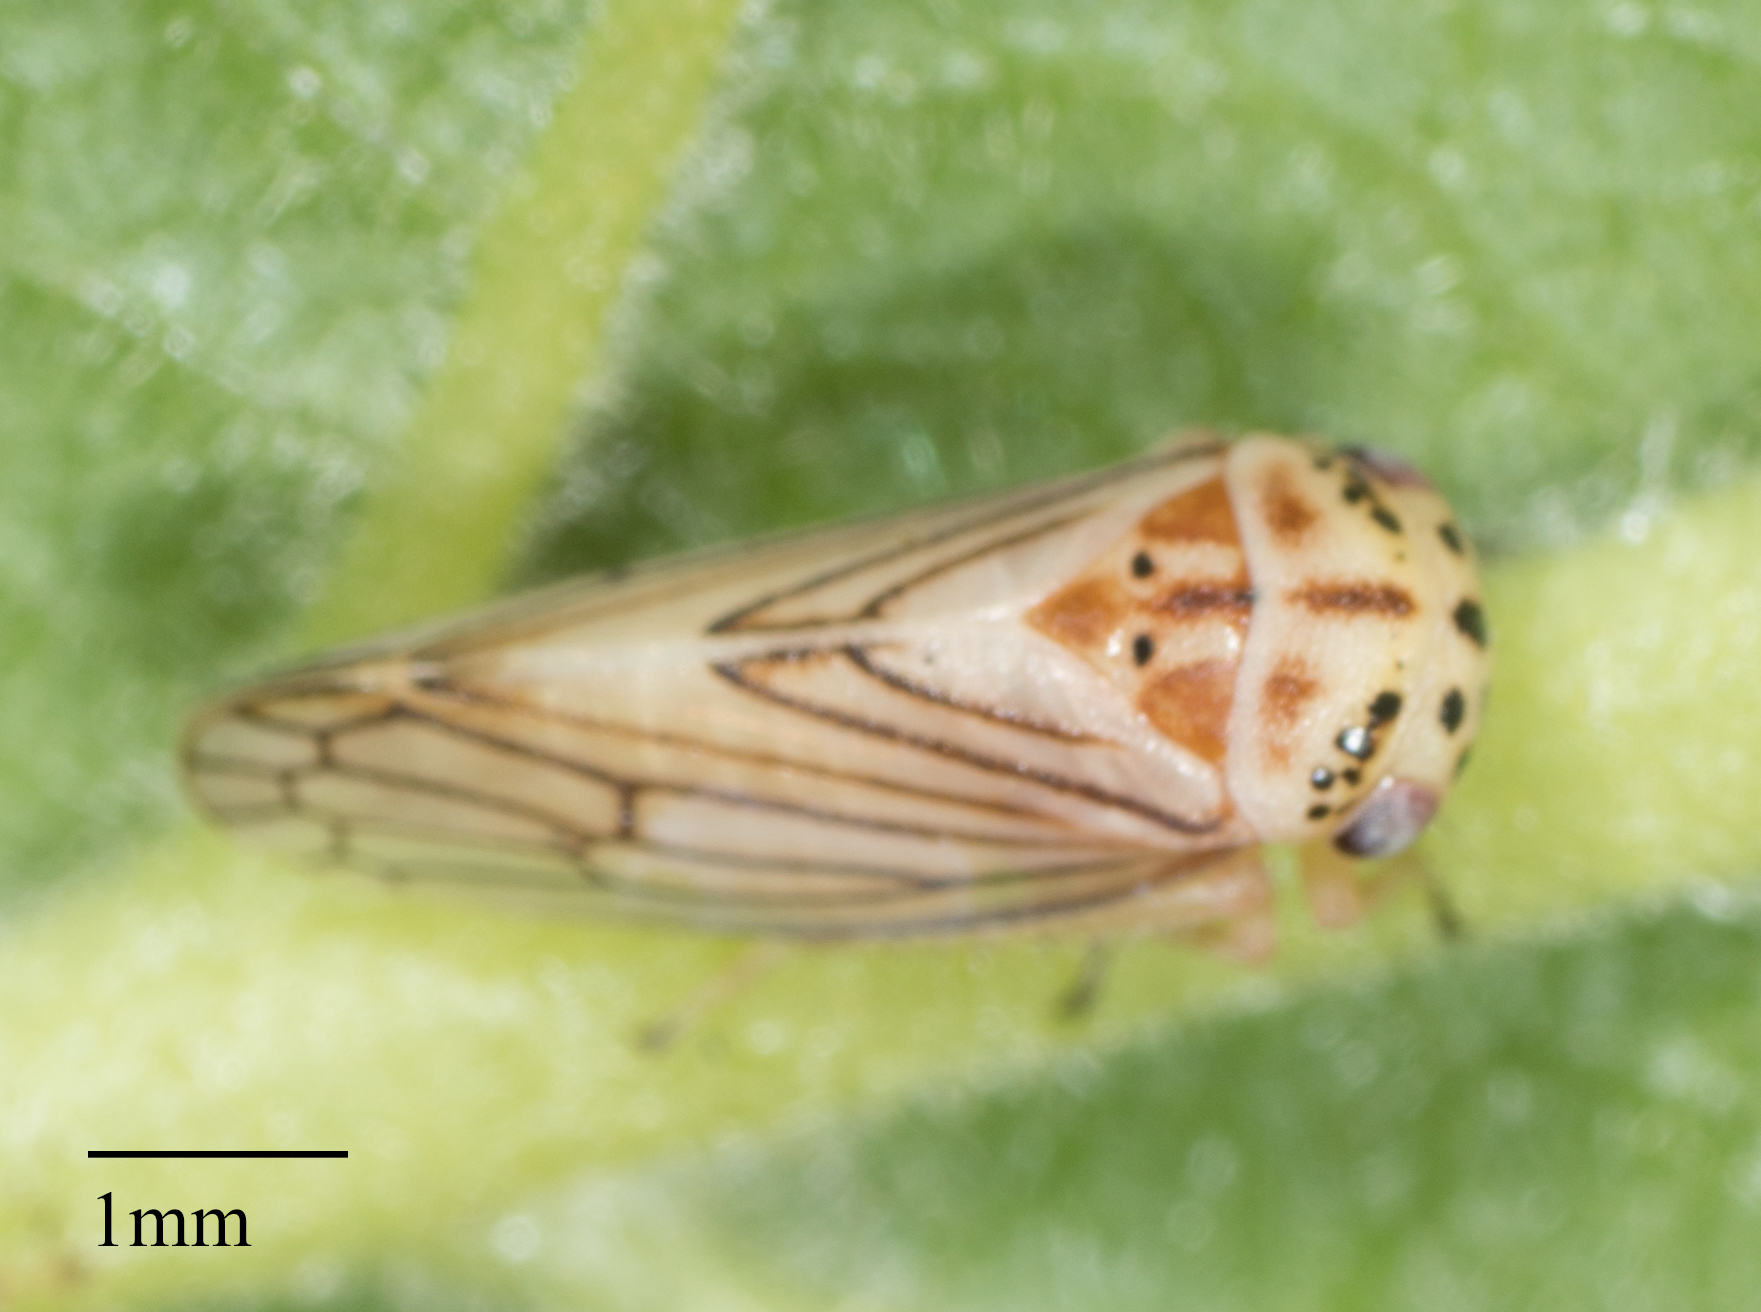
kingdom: Animalia
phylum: Arthropoda
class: Insecta
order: Hemiptera
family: Cicadellidae
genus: Oncopsis
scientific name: Oncopsis aureostria
